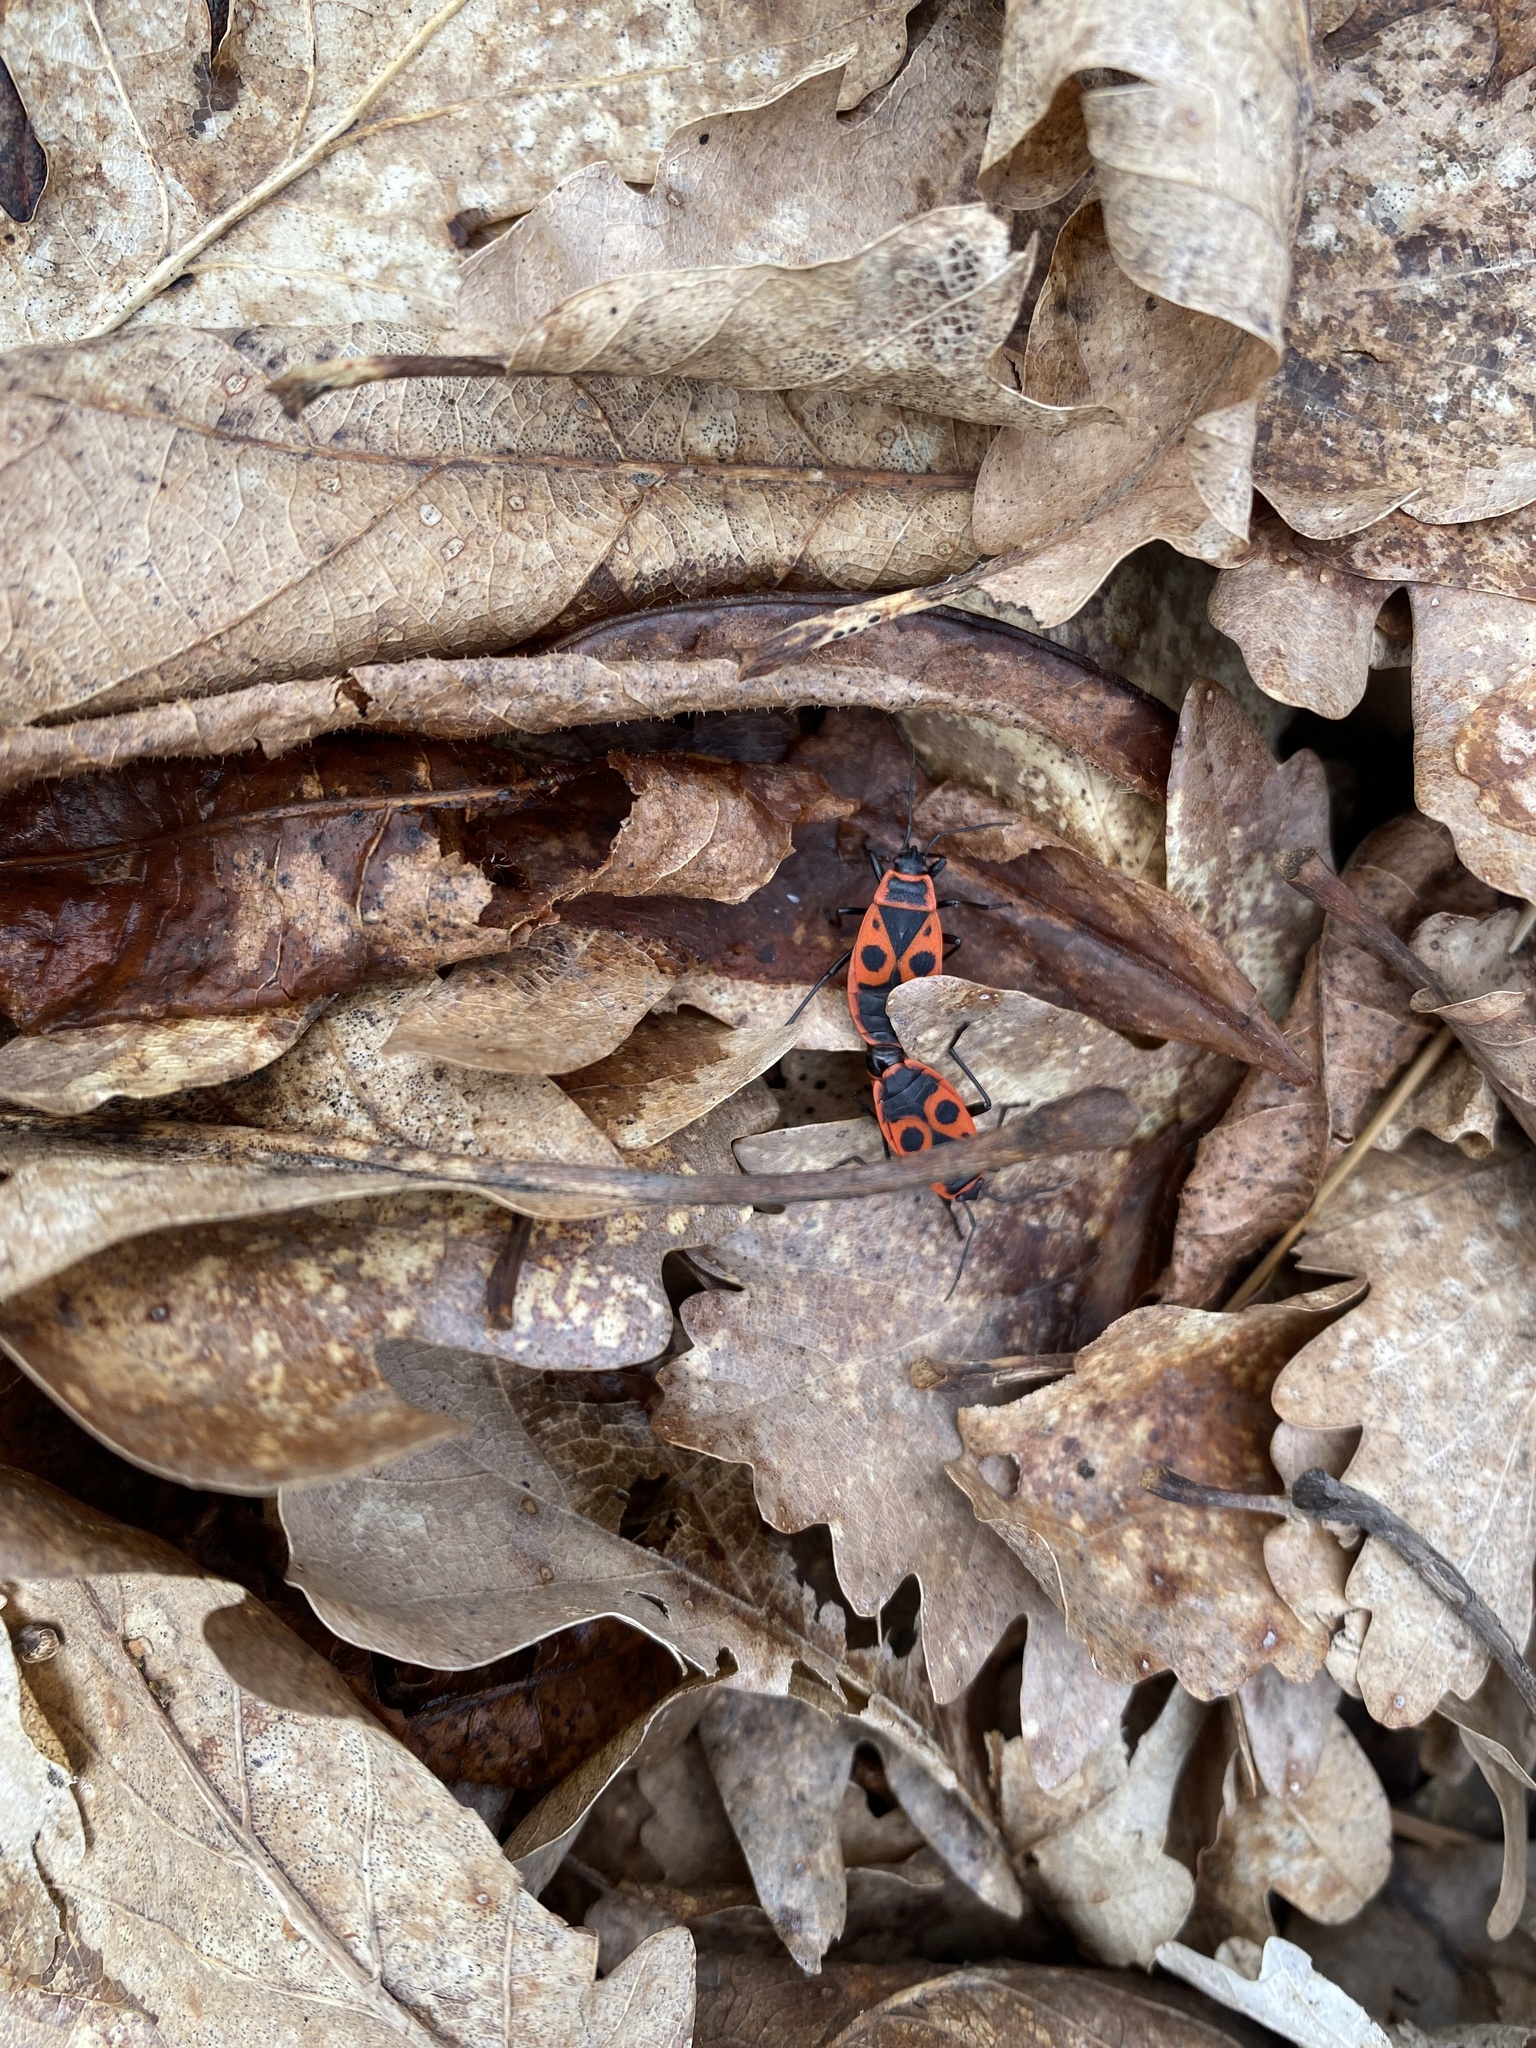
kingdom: Animalia
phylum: Arthropoda
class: Insecta
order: Hemiptera
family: Pyrrhocoridae
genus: Pyrrhocoris
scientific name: Pyrrhocoris apterus
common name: Firebug
